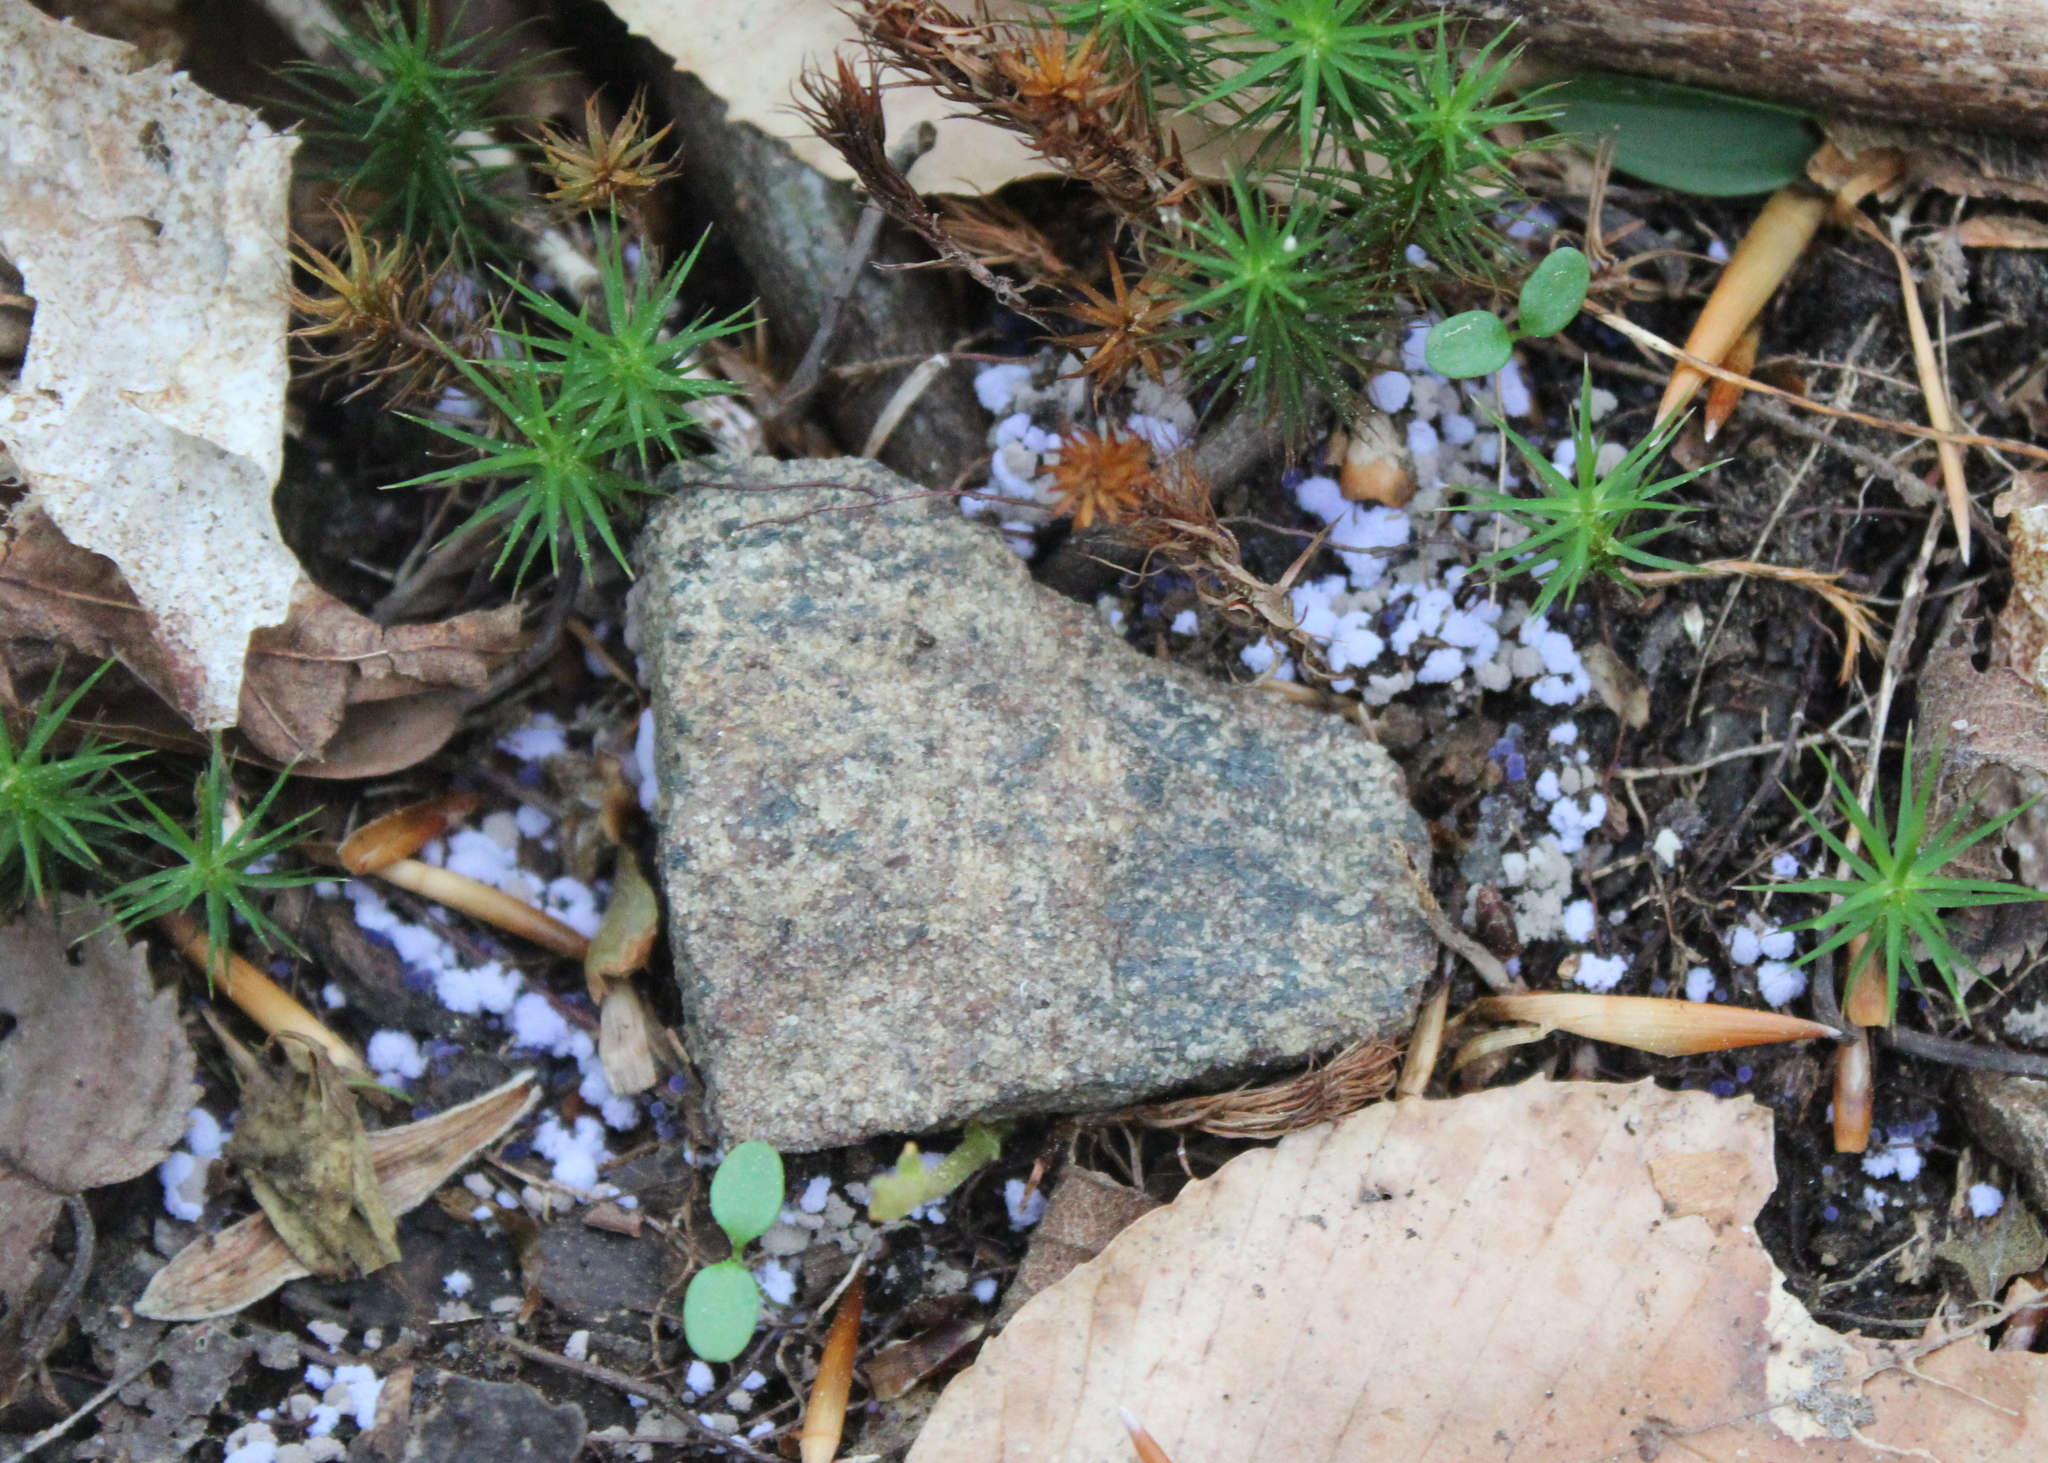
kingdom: Fungi
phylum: Ascomycota
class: Pezizomycetes
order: Pezizales
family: Pezizaceae
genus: Chromelosporiopsis
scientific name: Chromelosporiopsis coerulescens
